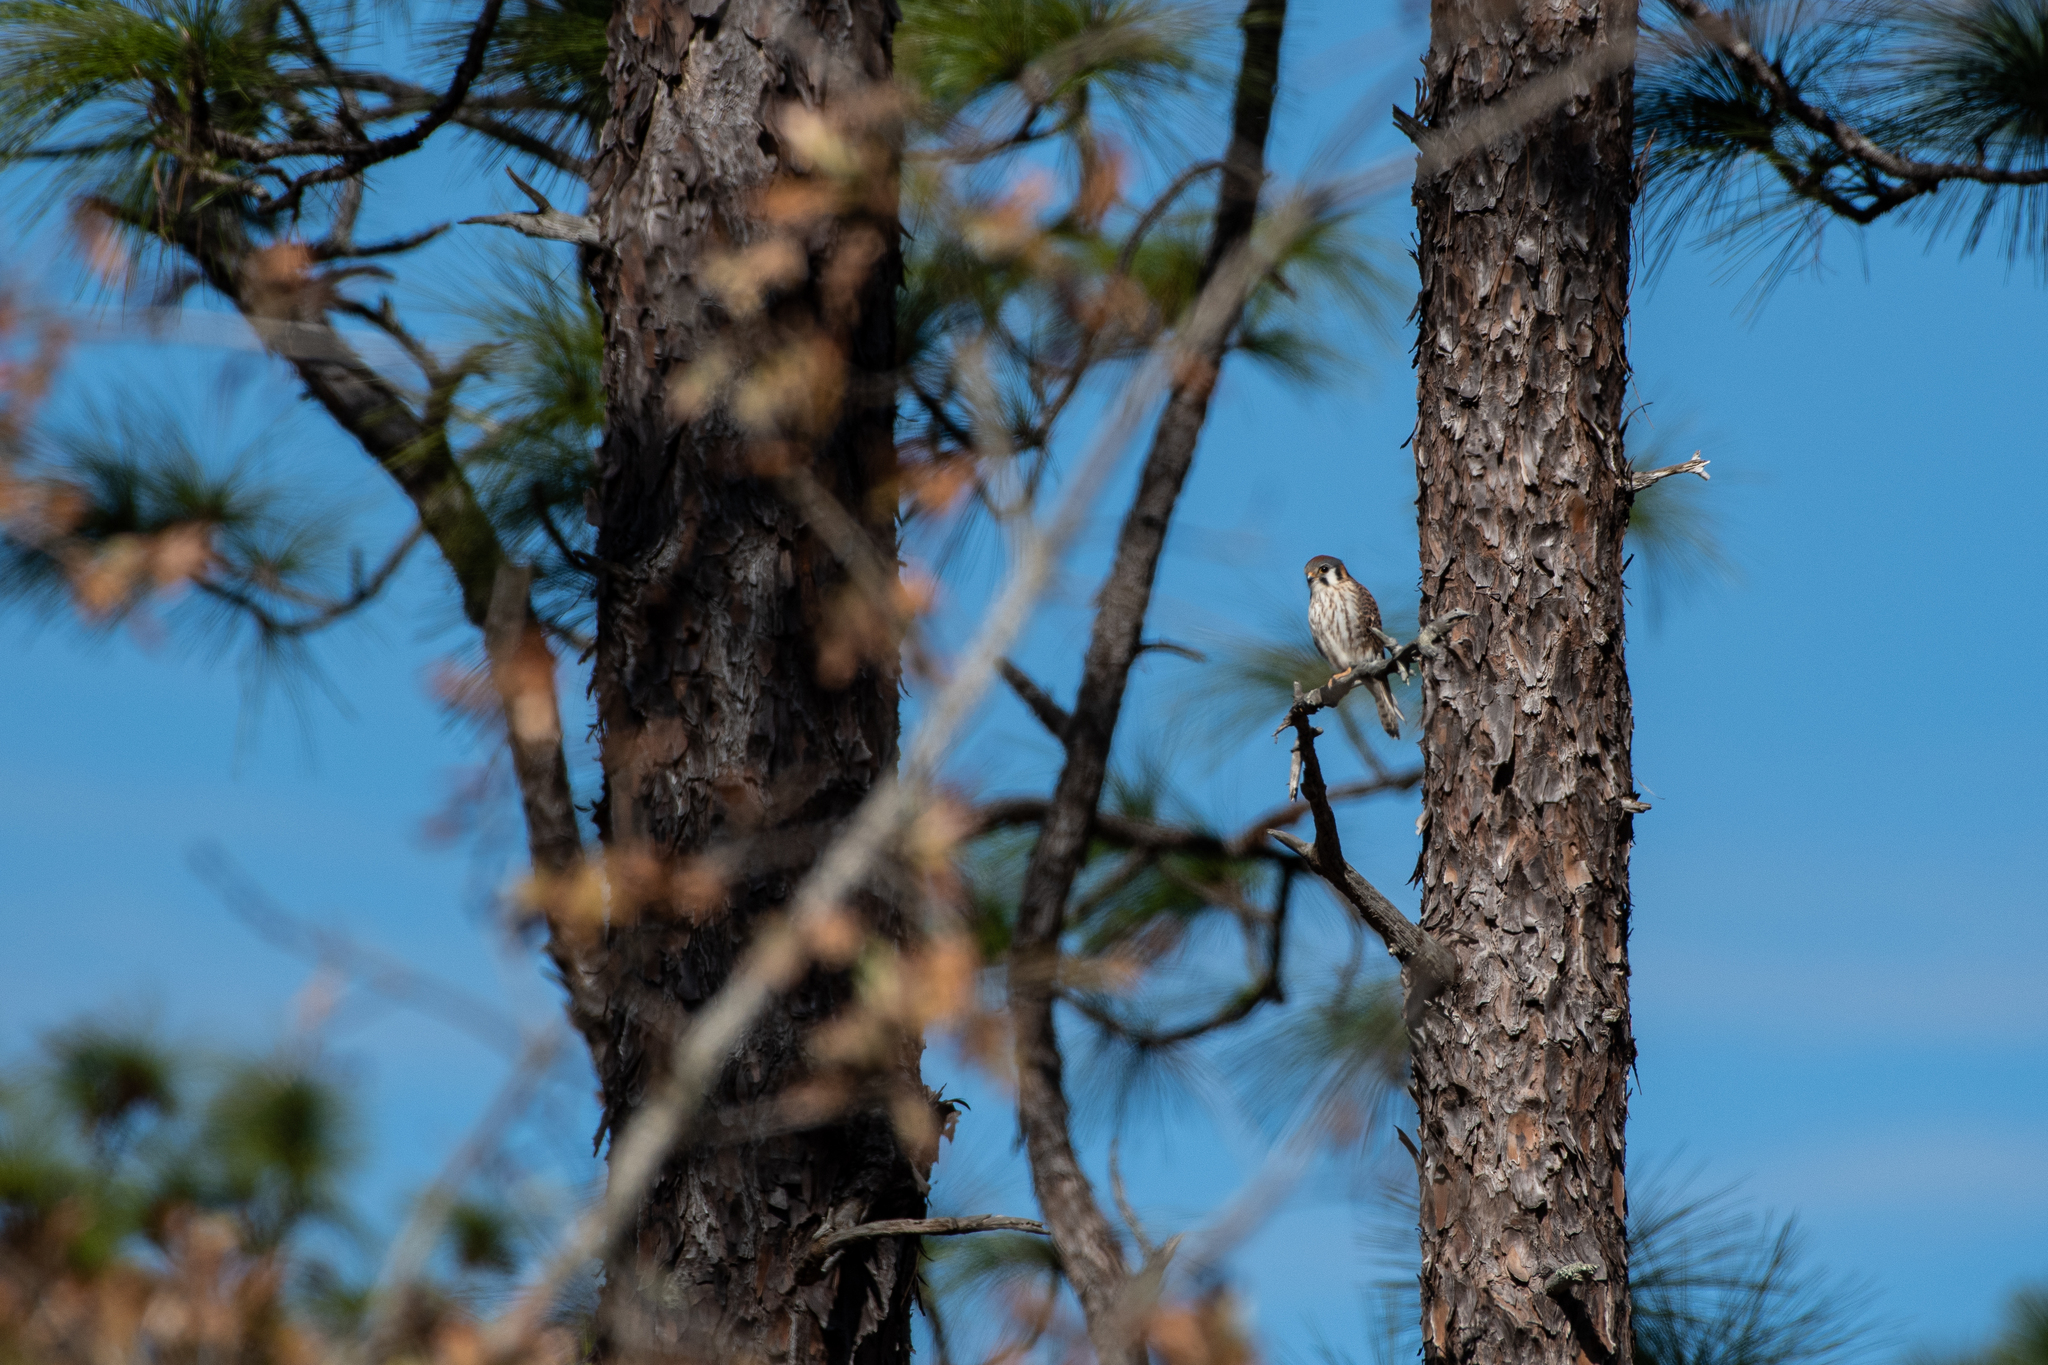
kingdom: Animalia
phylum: Chordata
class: Aves
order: Falconiformes
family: Falconidae
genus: Falco
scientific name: Falco sparverius
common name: American kestrel
